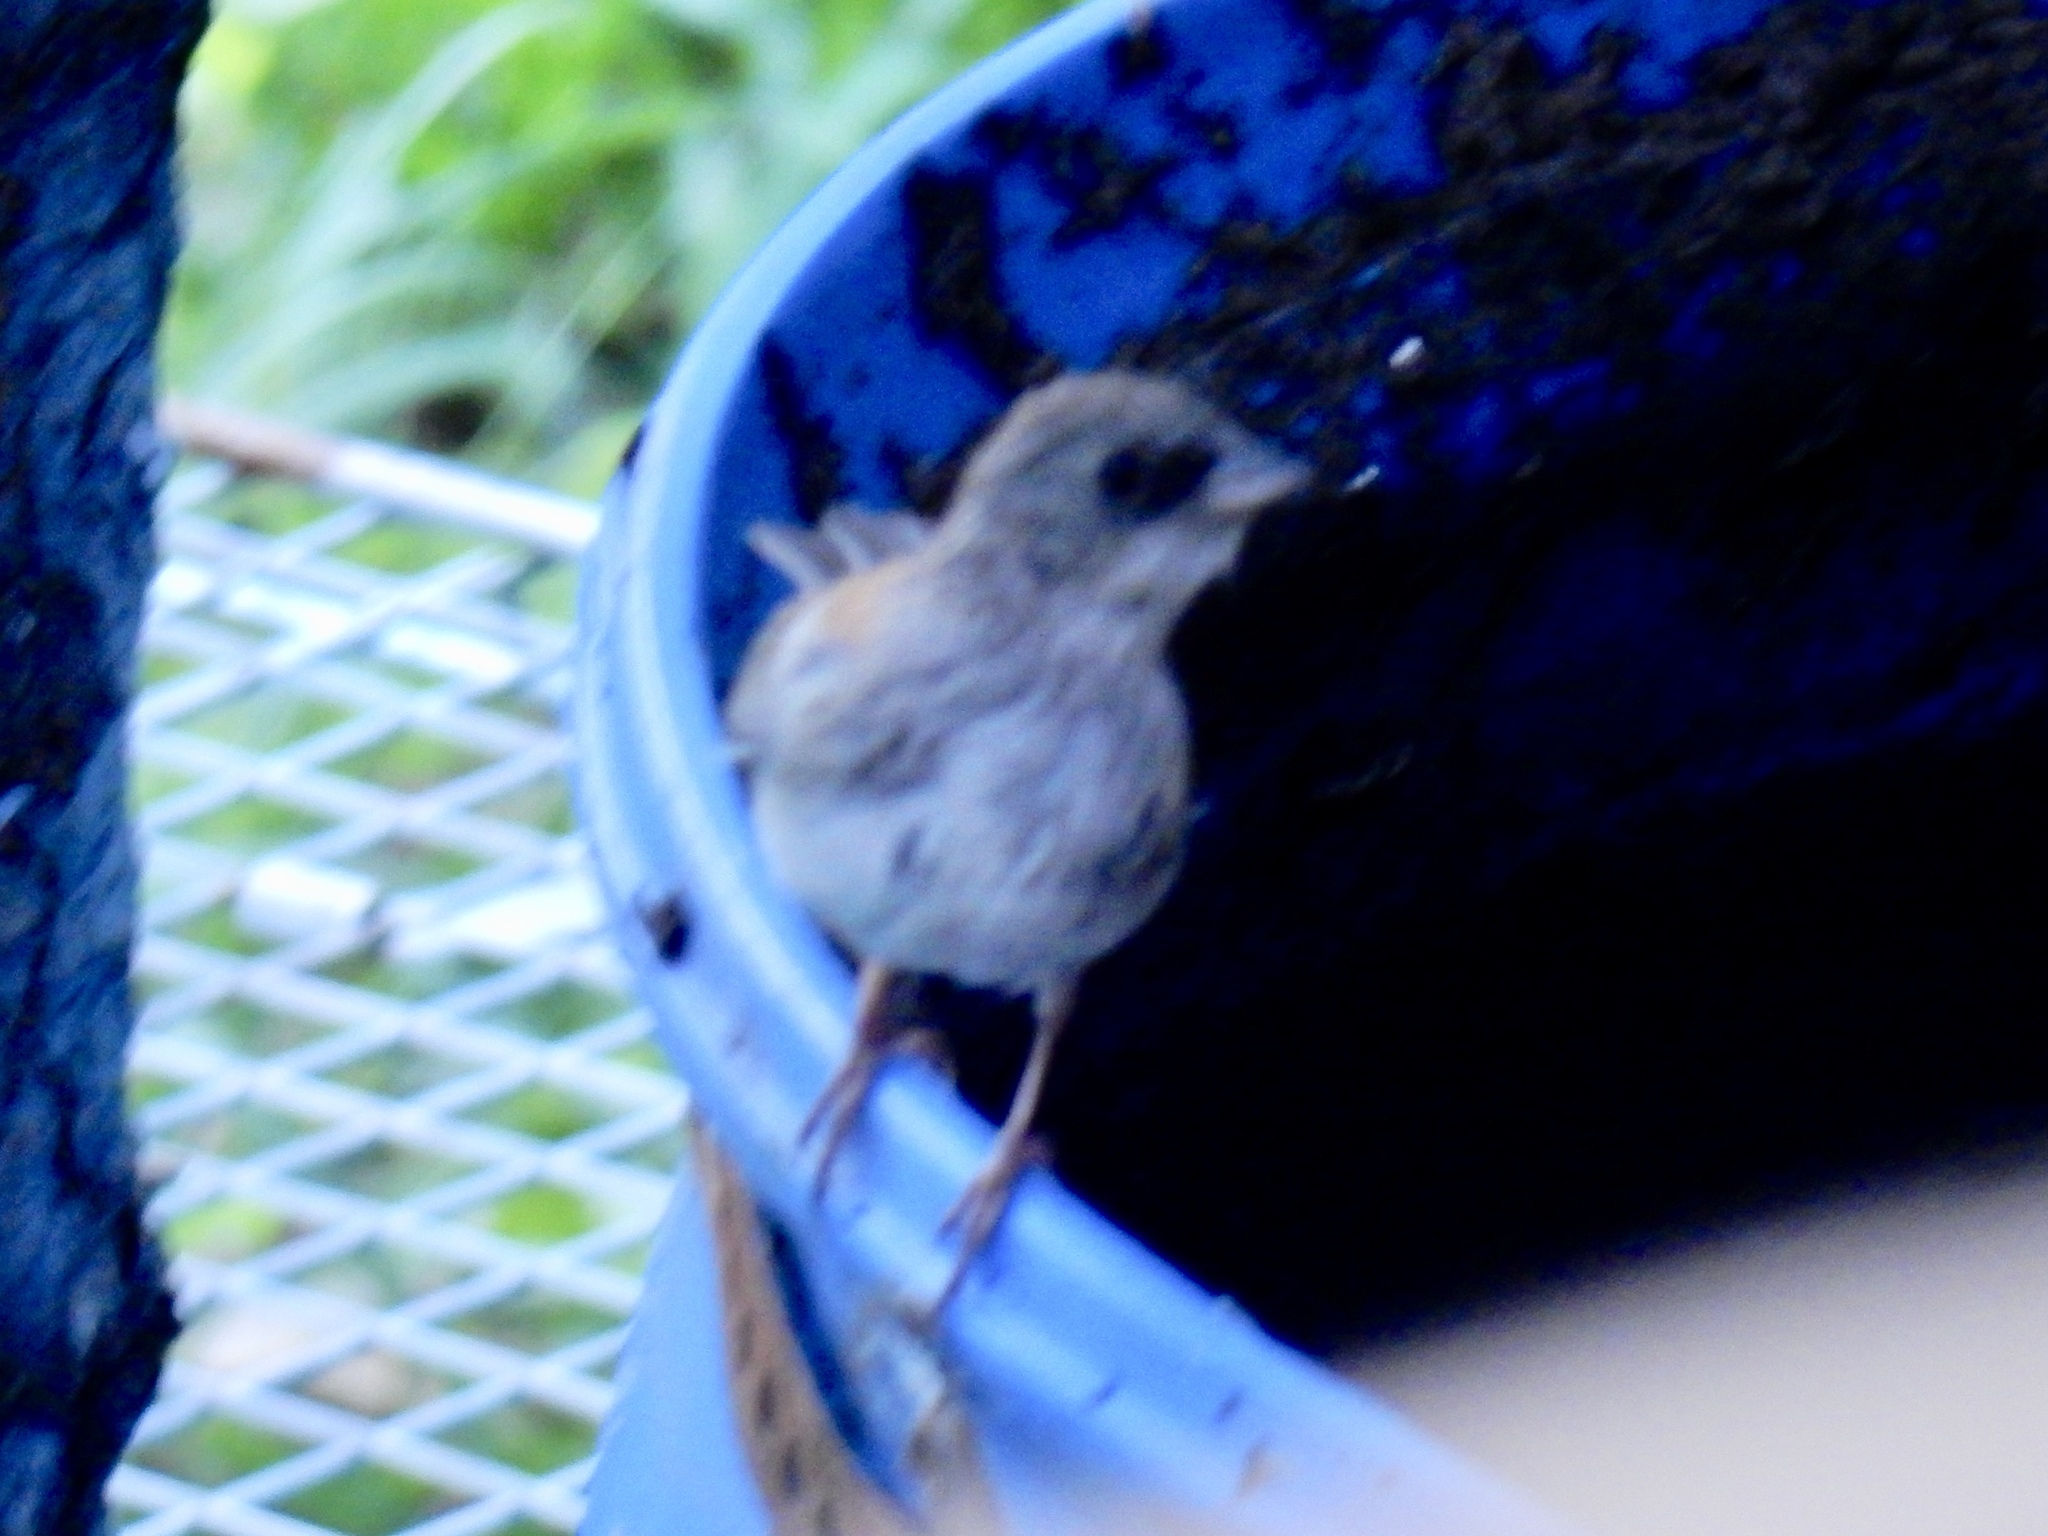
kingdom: Animalia
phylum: Chordata
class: Aves
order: Passeriformes
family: Passerellidae
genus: Junco
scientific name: Junco hyemalis
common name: Dark-eyed junco
